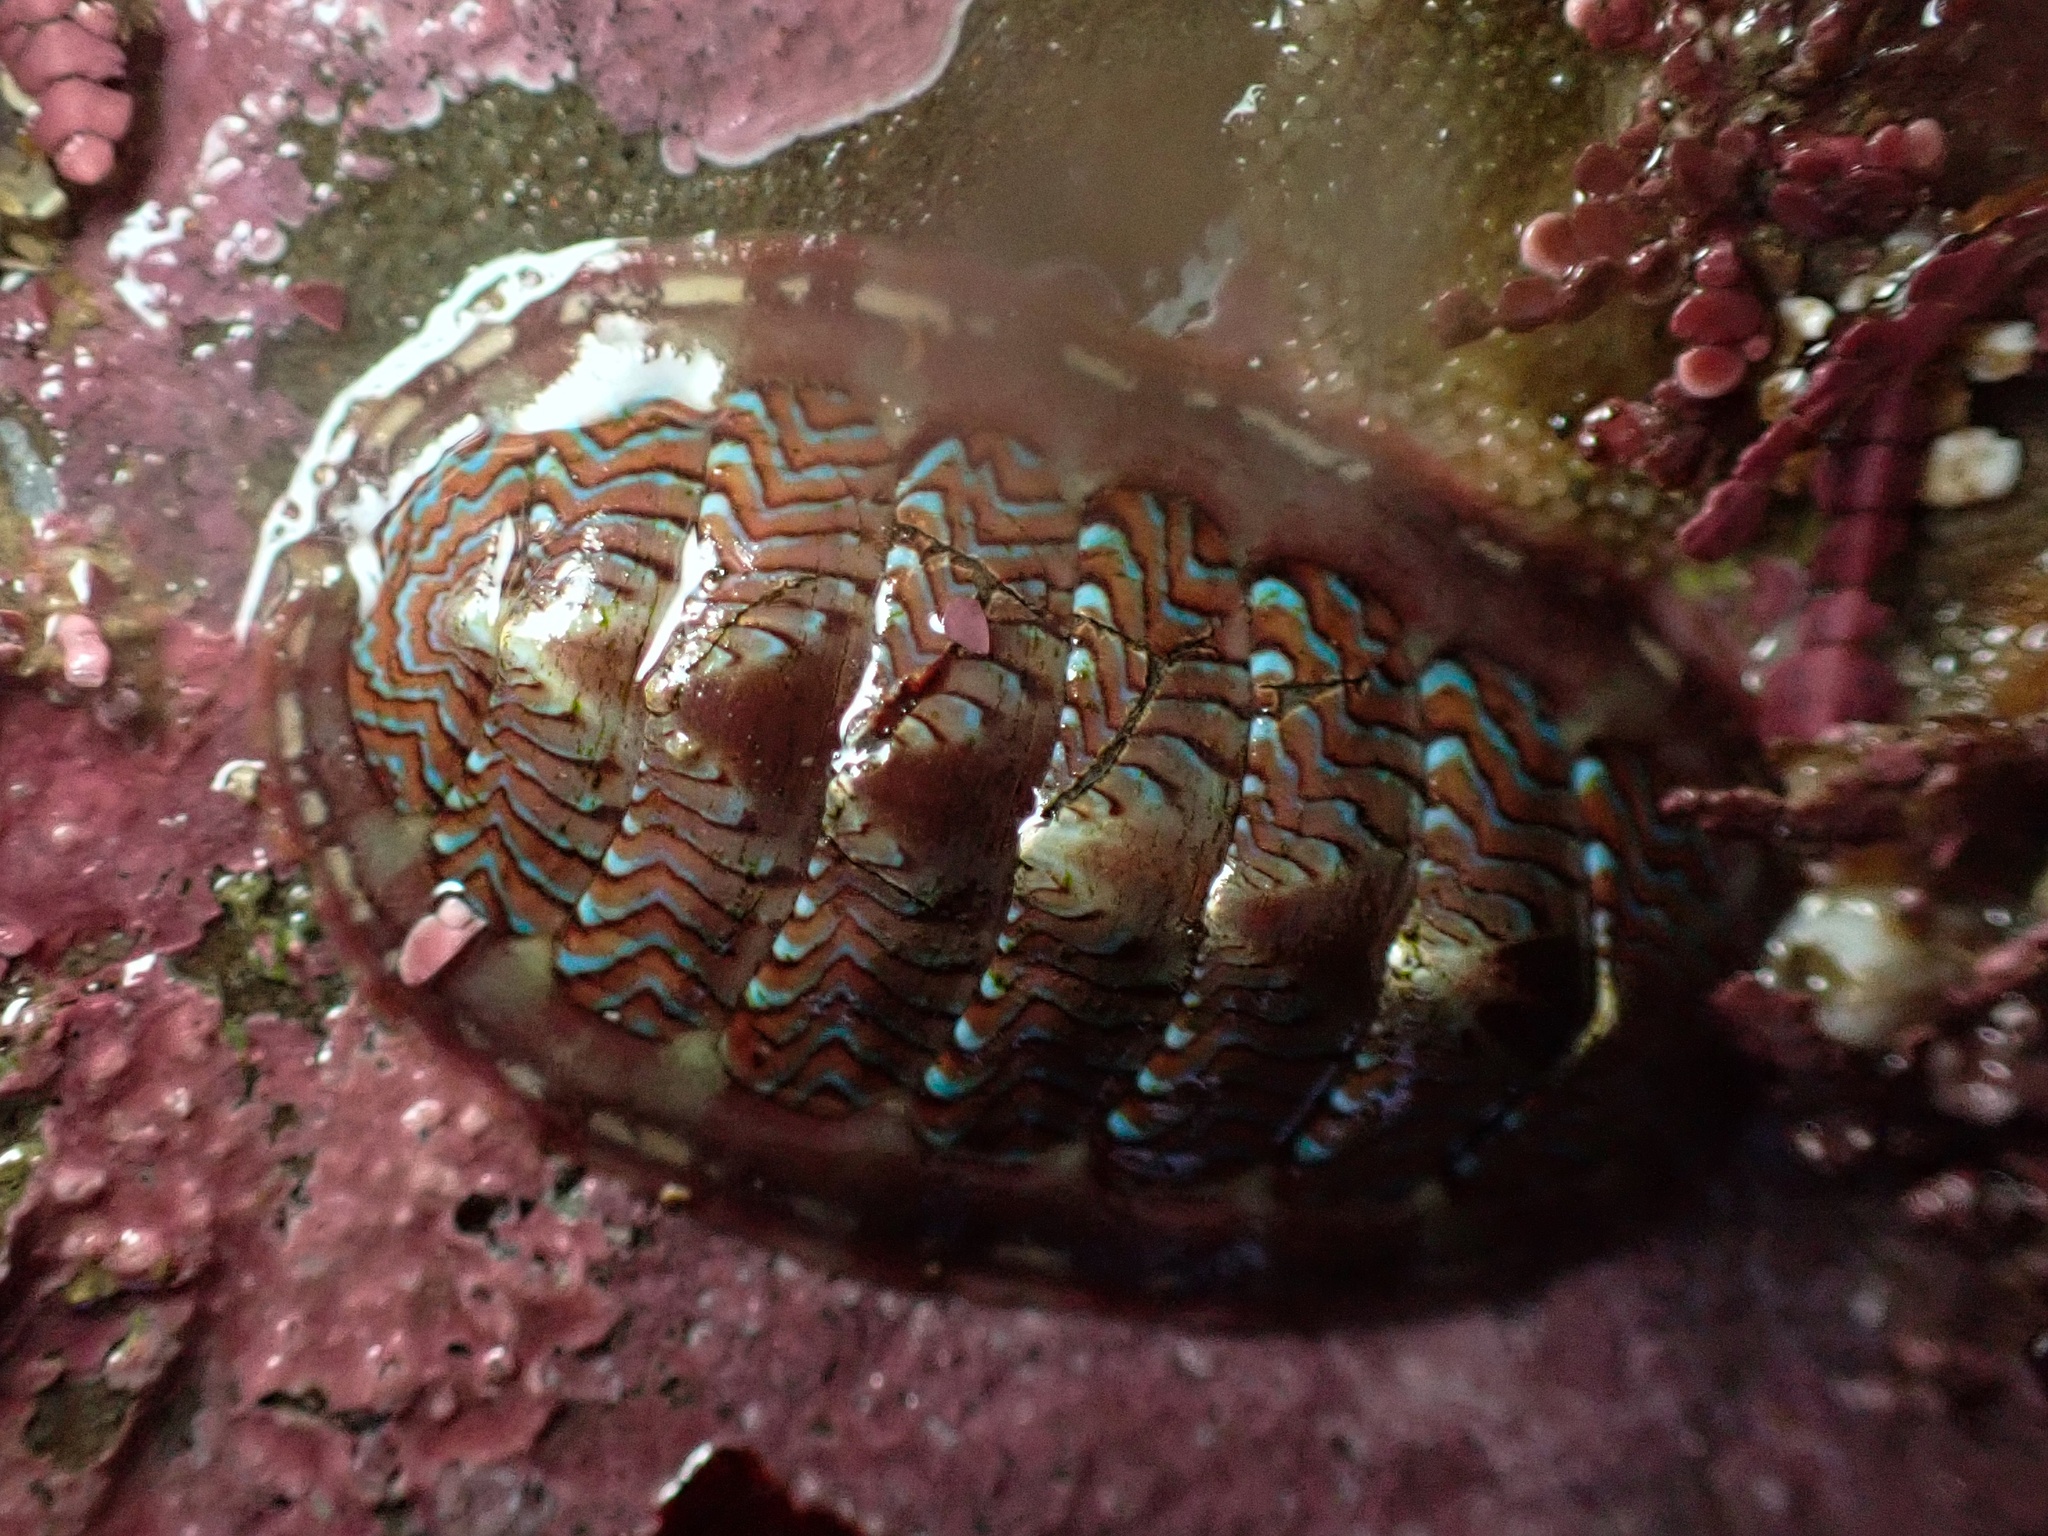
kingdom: Animalia
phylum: Mollusca
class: Polyplacophora
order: Chitonida
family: Tonicellidae
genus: Tonicella
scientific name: Tonicella lokii
